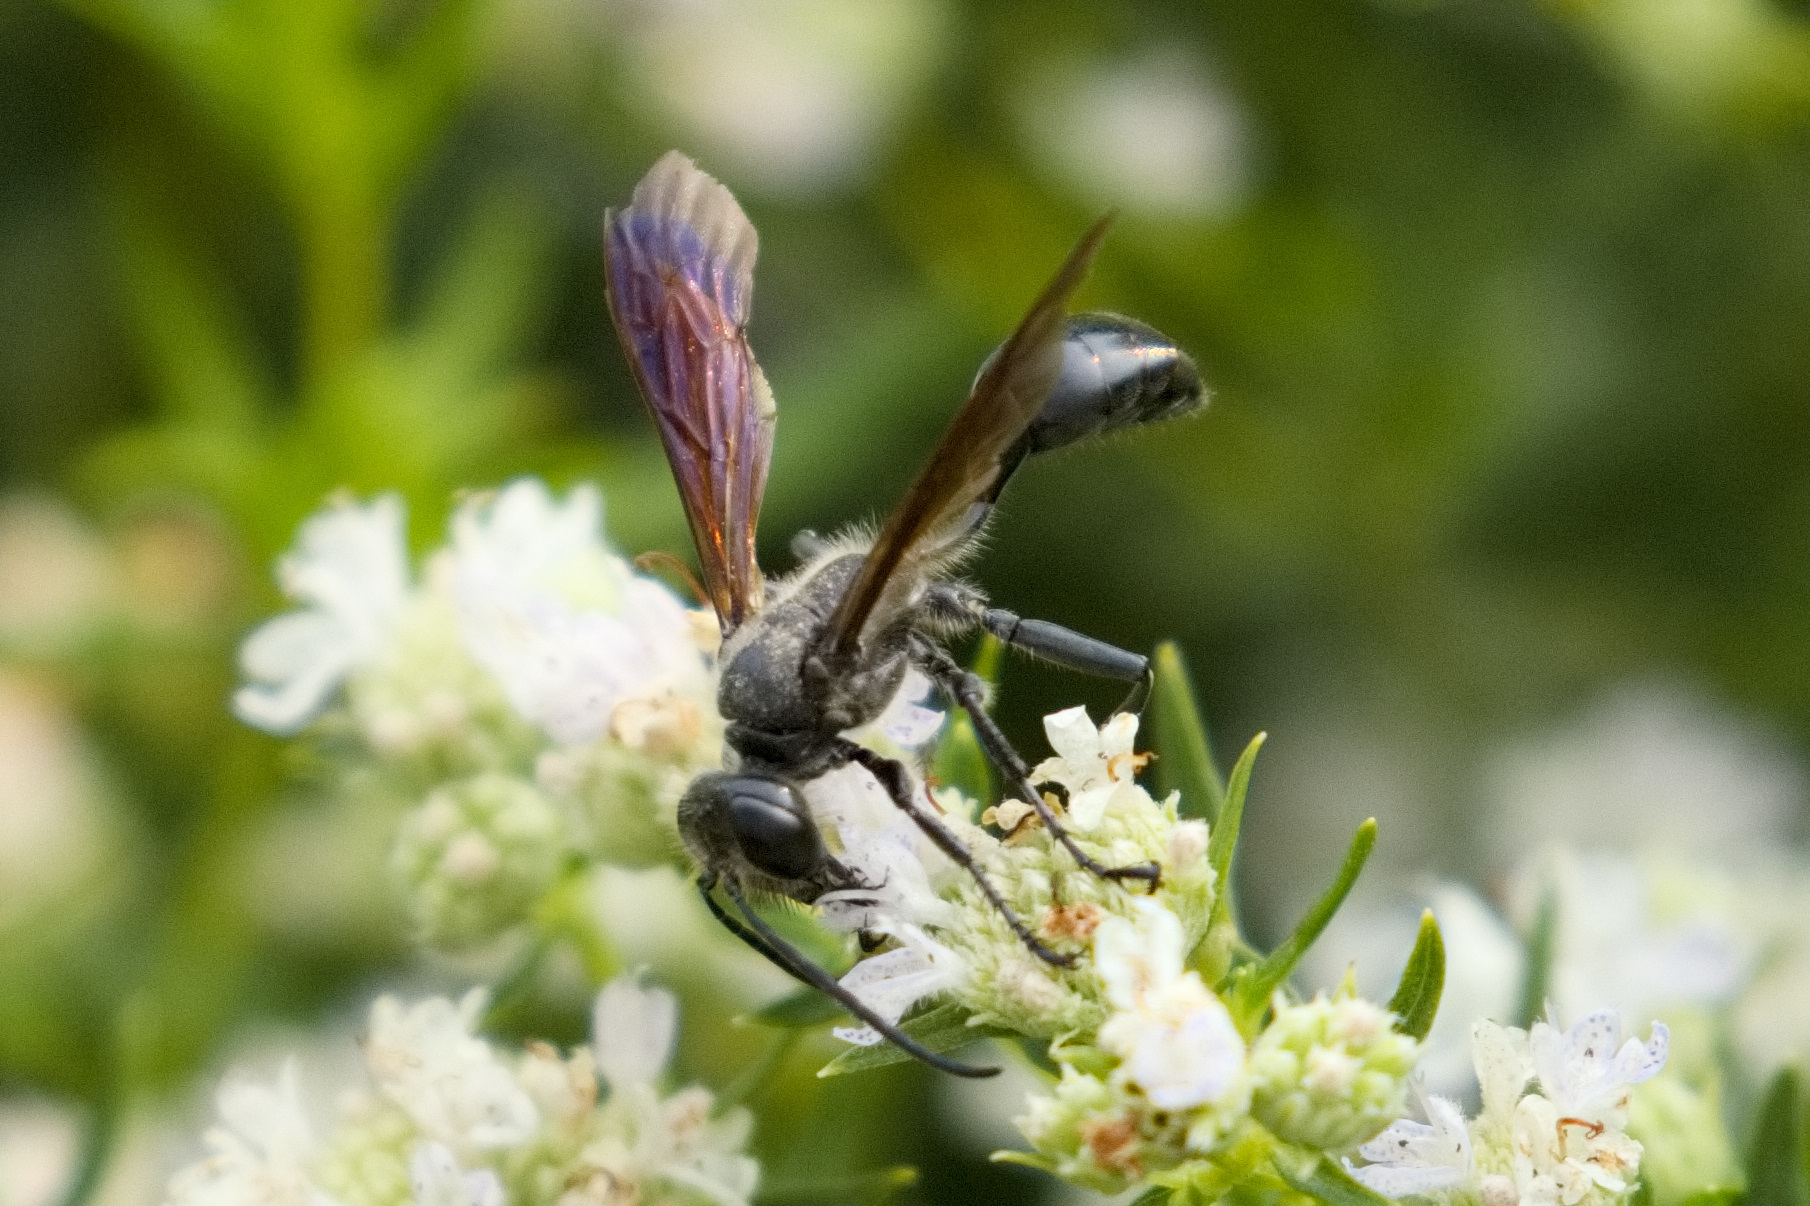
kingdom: Animalia
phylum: Arthropoda
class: Insecta
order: Hymenoptera
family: Sphecidae
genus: Isodontia
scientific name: Isodontia mexicana
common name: Mud dauber
